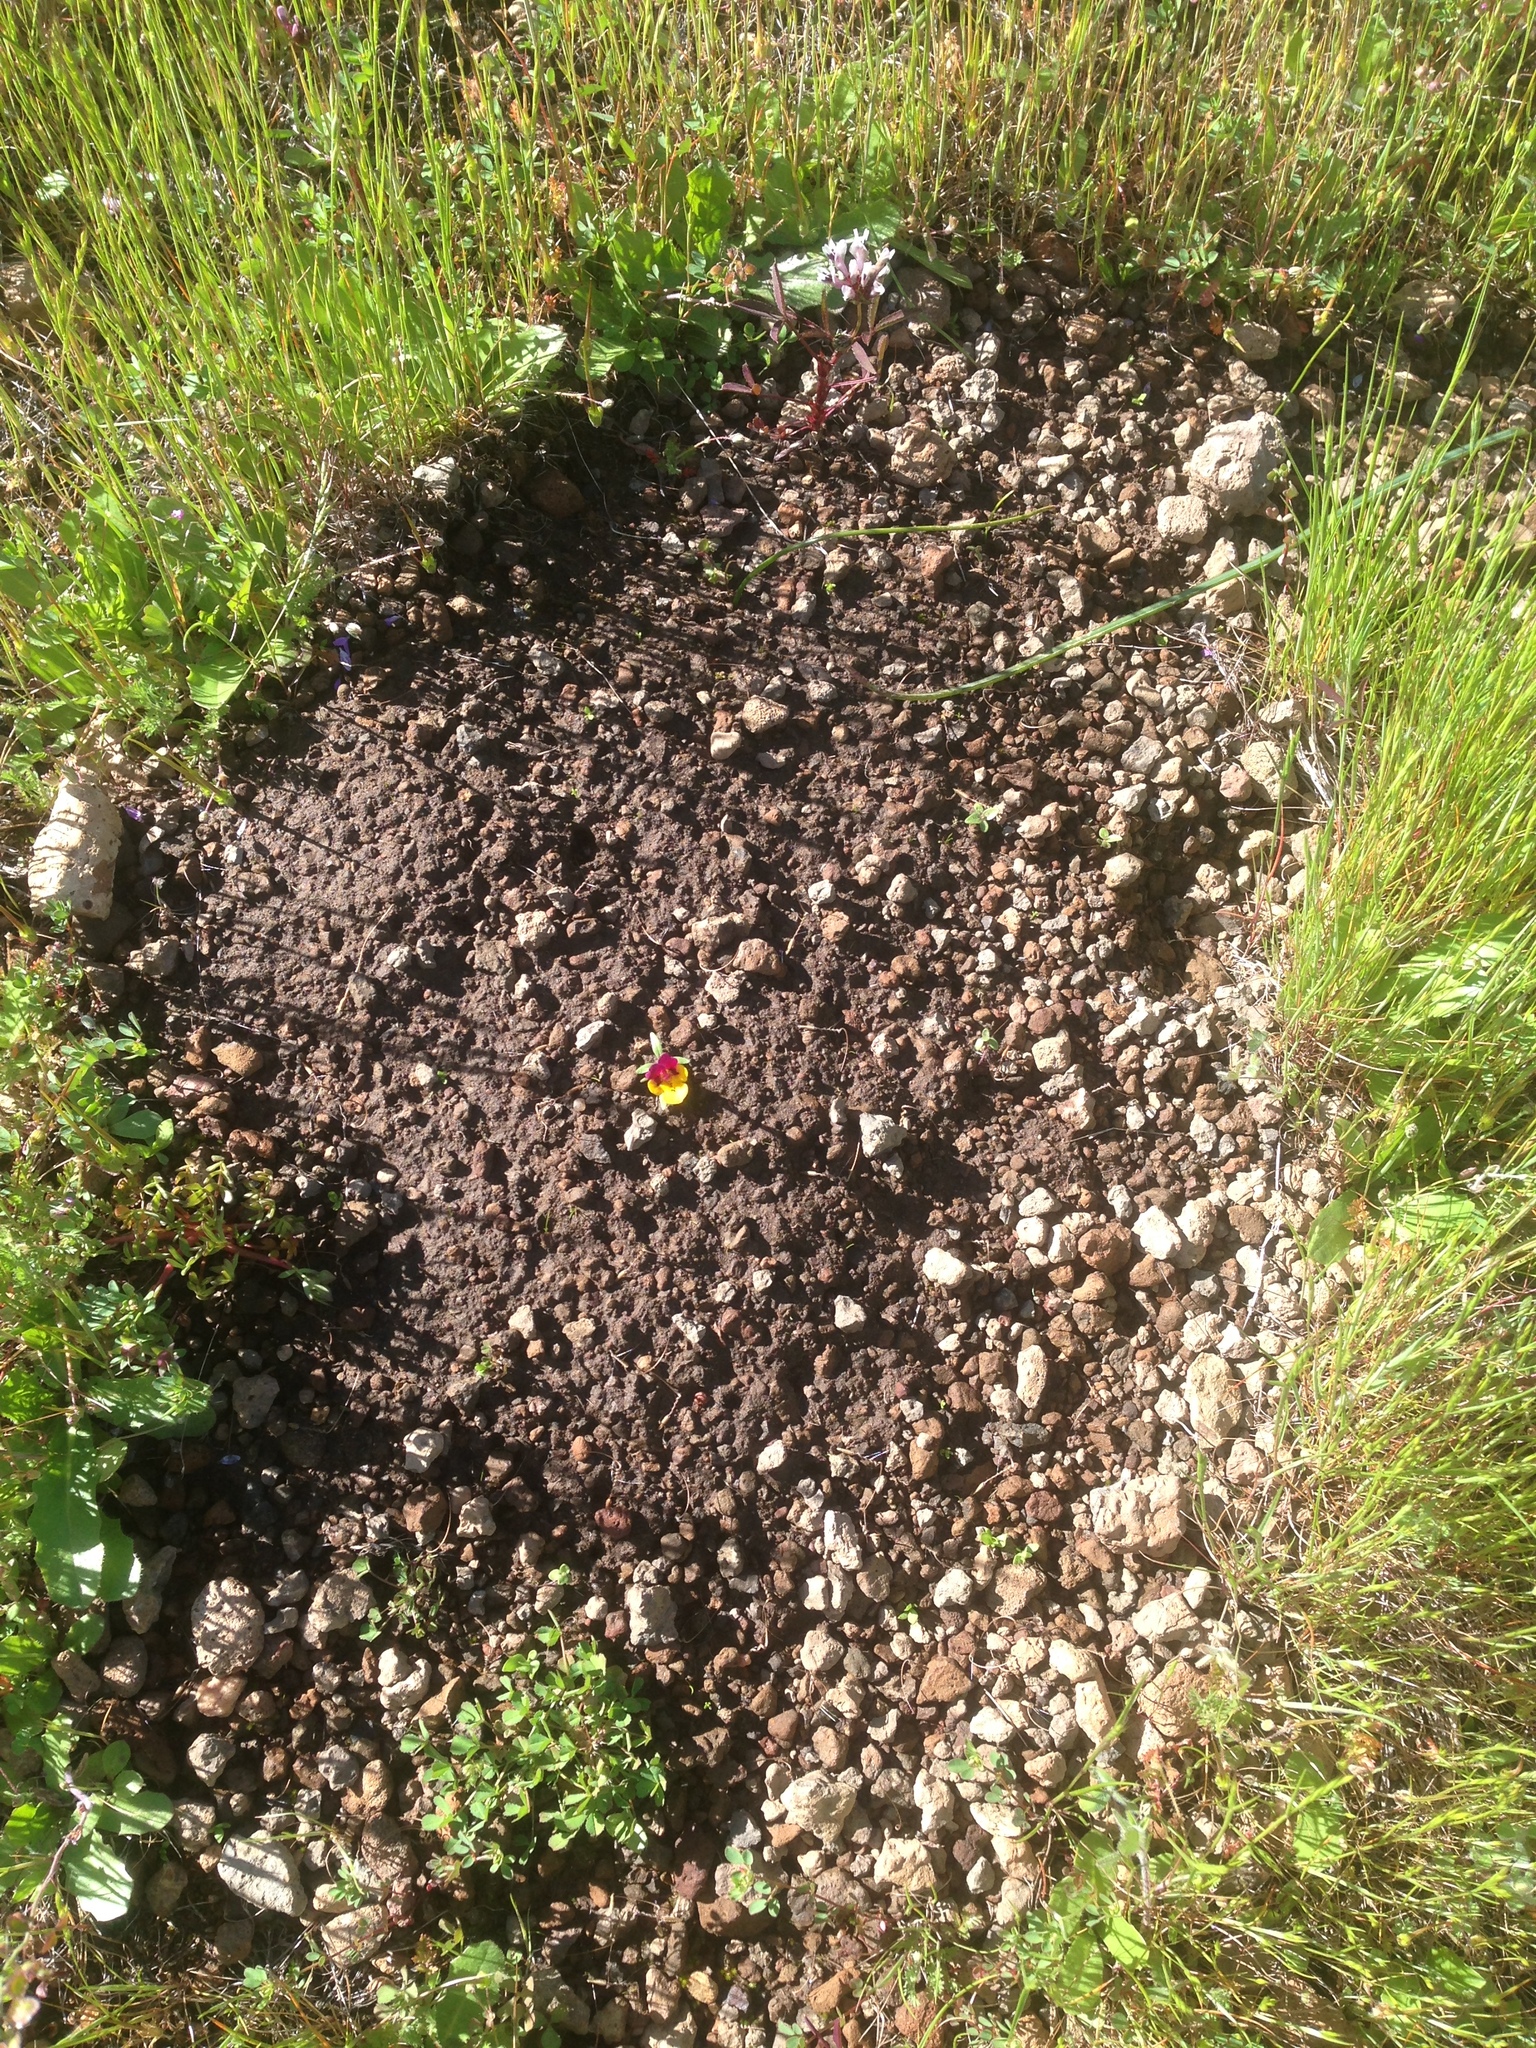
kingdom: Plantae
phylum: Tracheophyta
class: Magnoliopsida
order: Lamiales
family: Phrymaceae
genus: Diplacus
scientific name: Diplacus pulchellus
